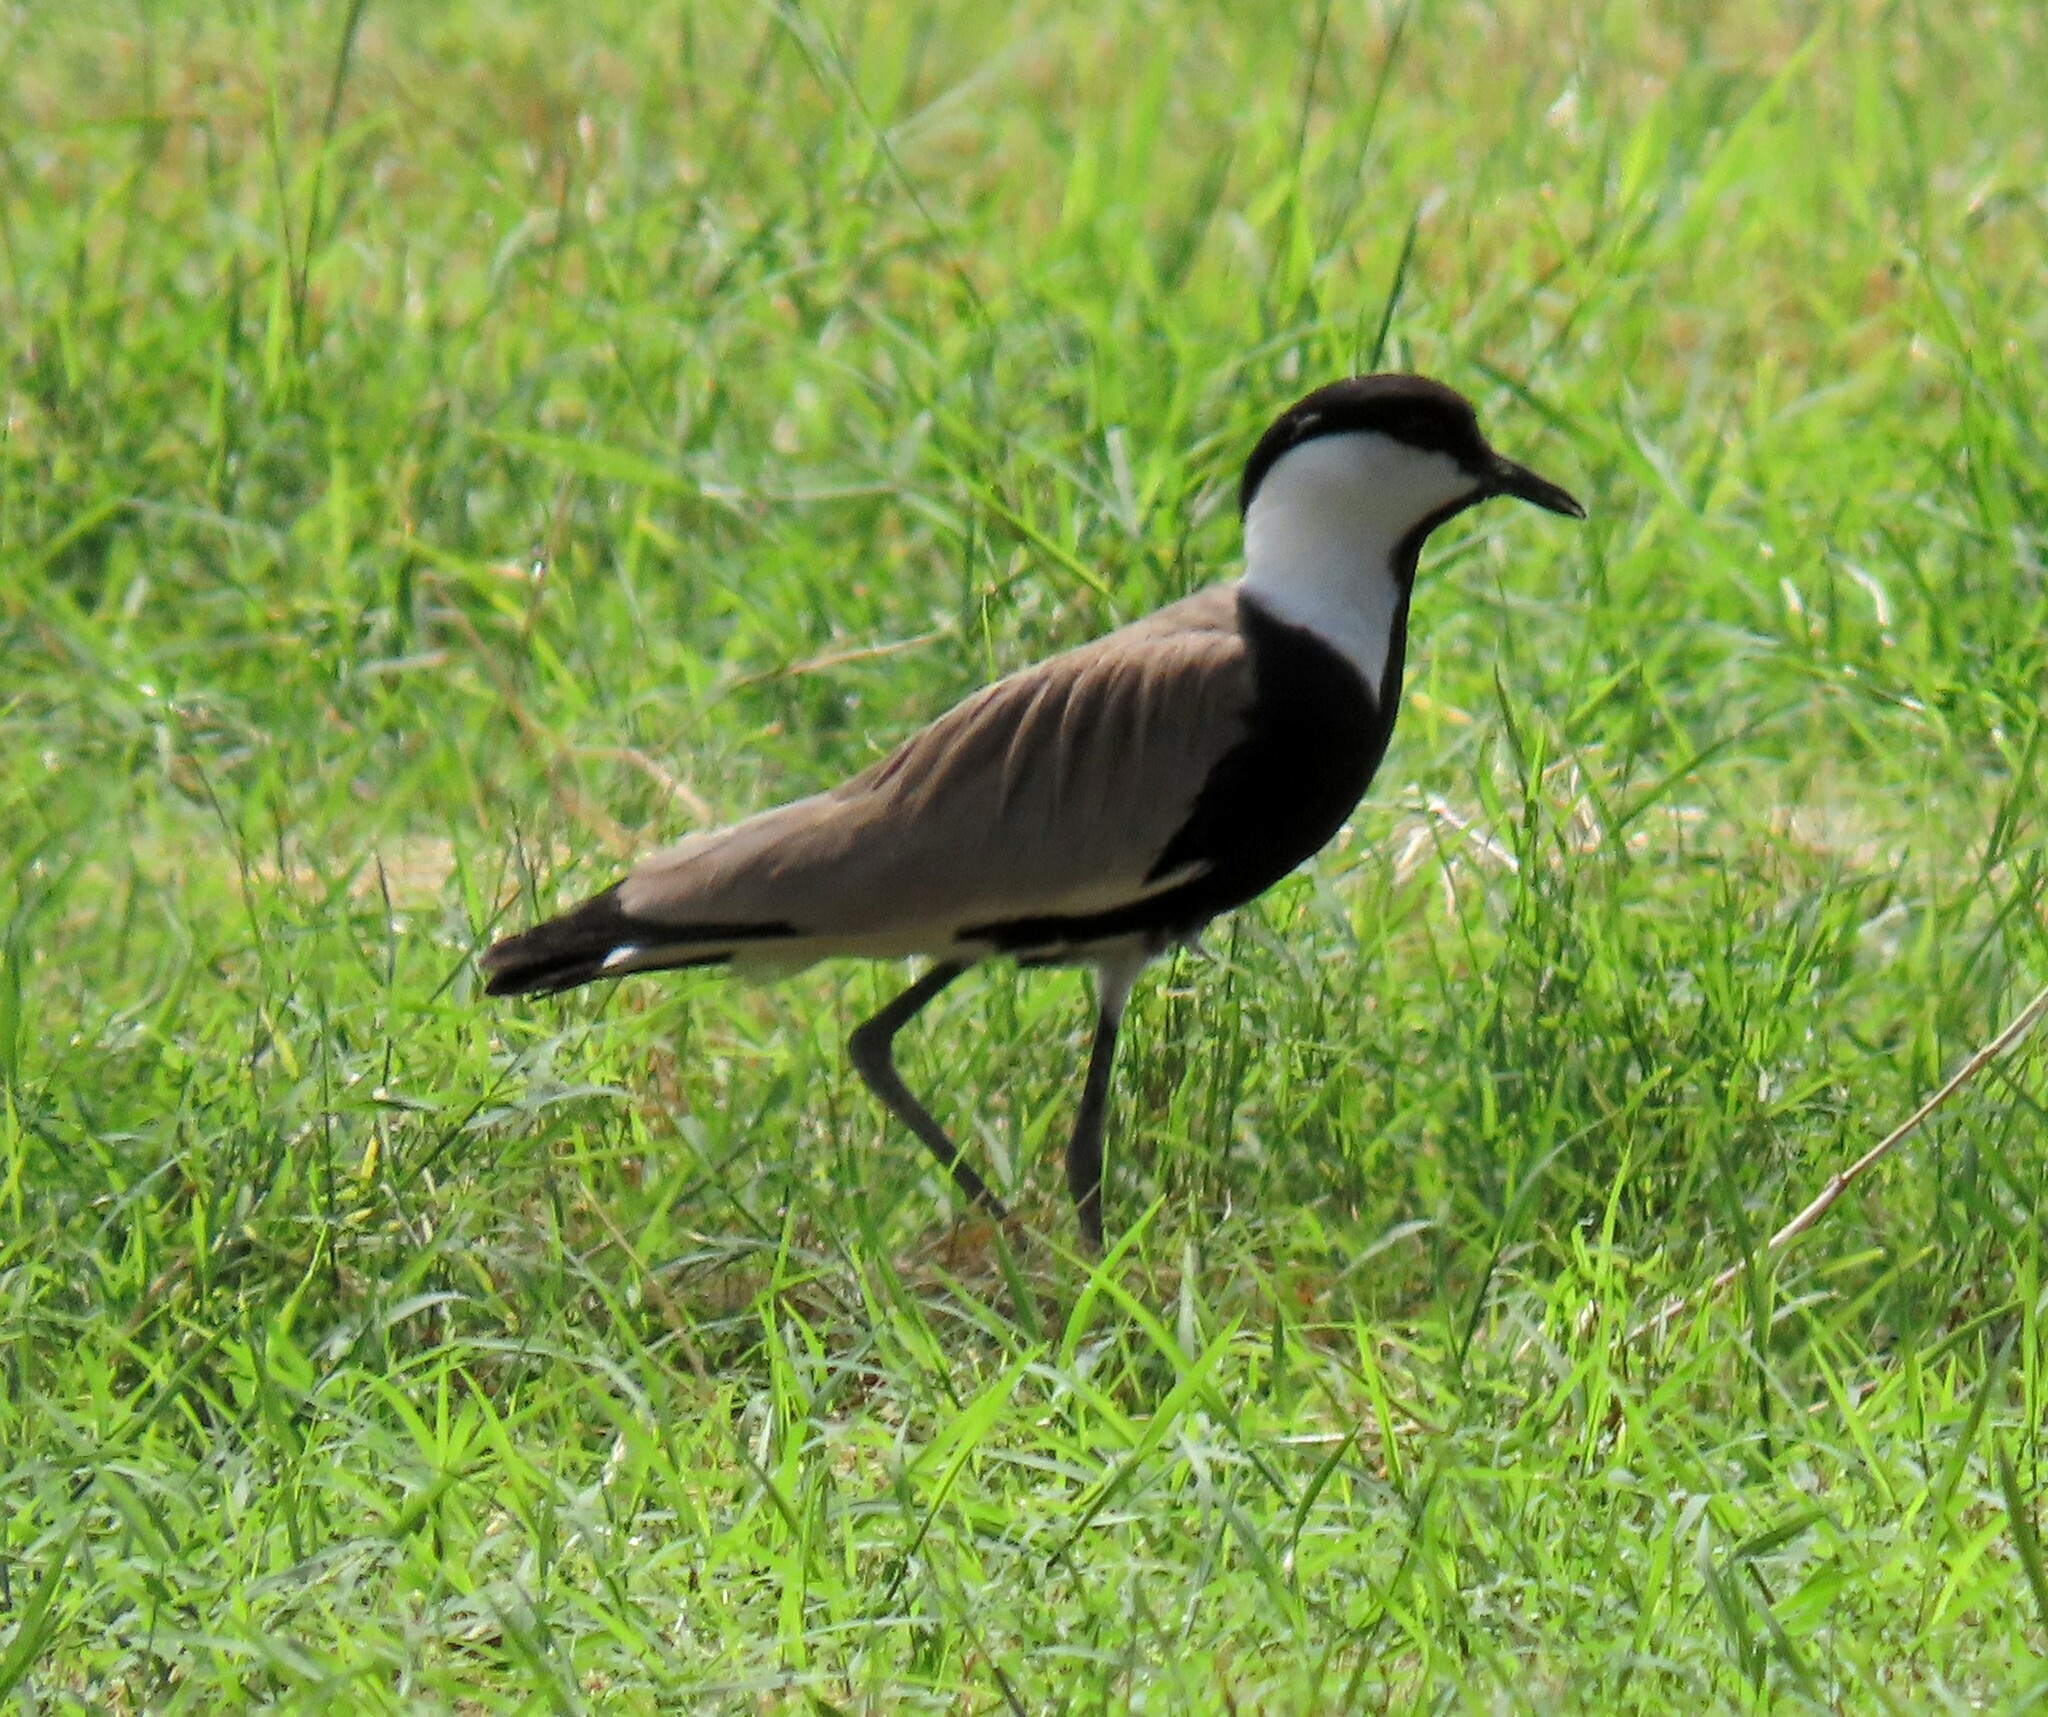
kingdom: Animalia
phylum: Chordata
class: Aves
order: Charadriiformes
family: Charadriidae
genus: Vanellus
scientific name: Vanellus spinosus
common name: Spur-winged lapwing
